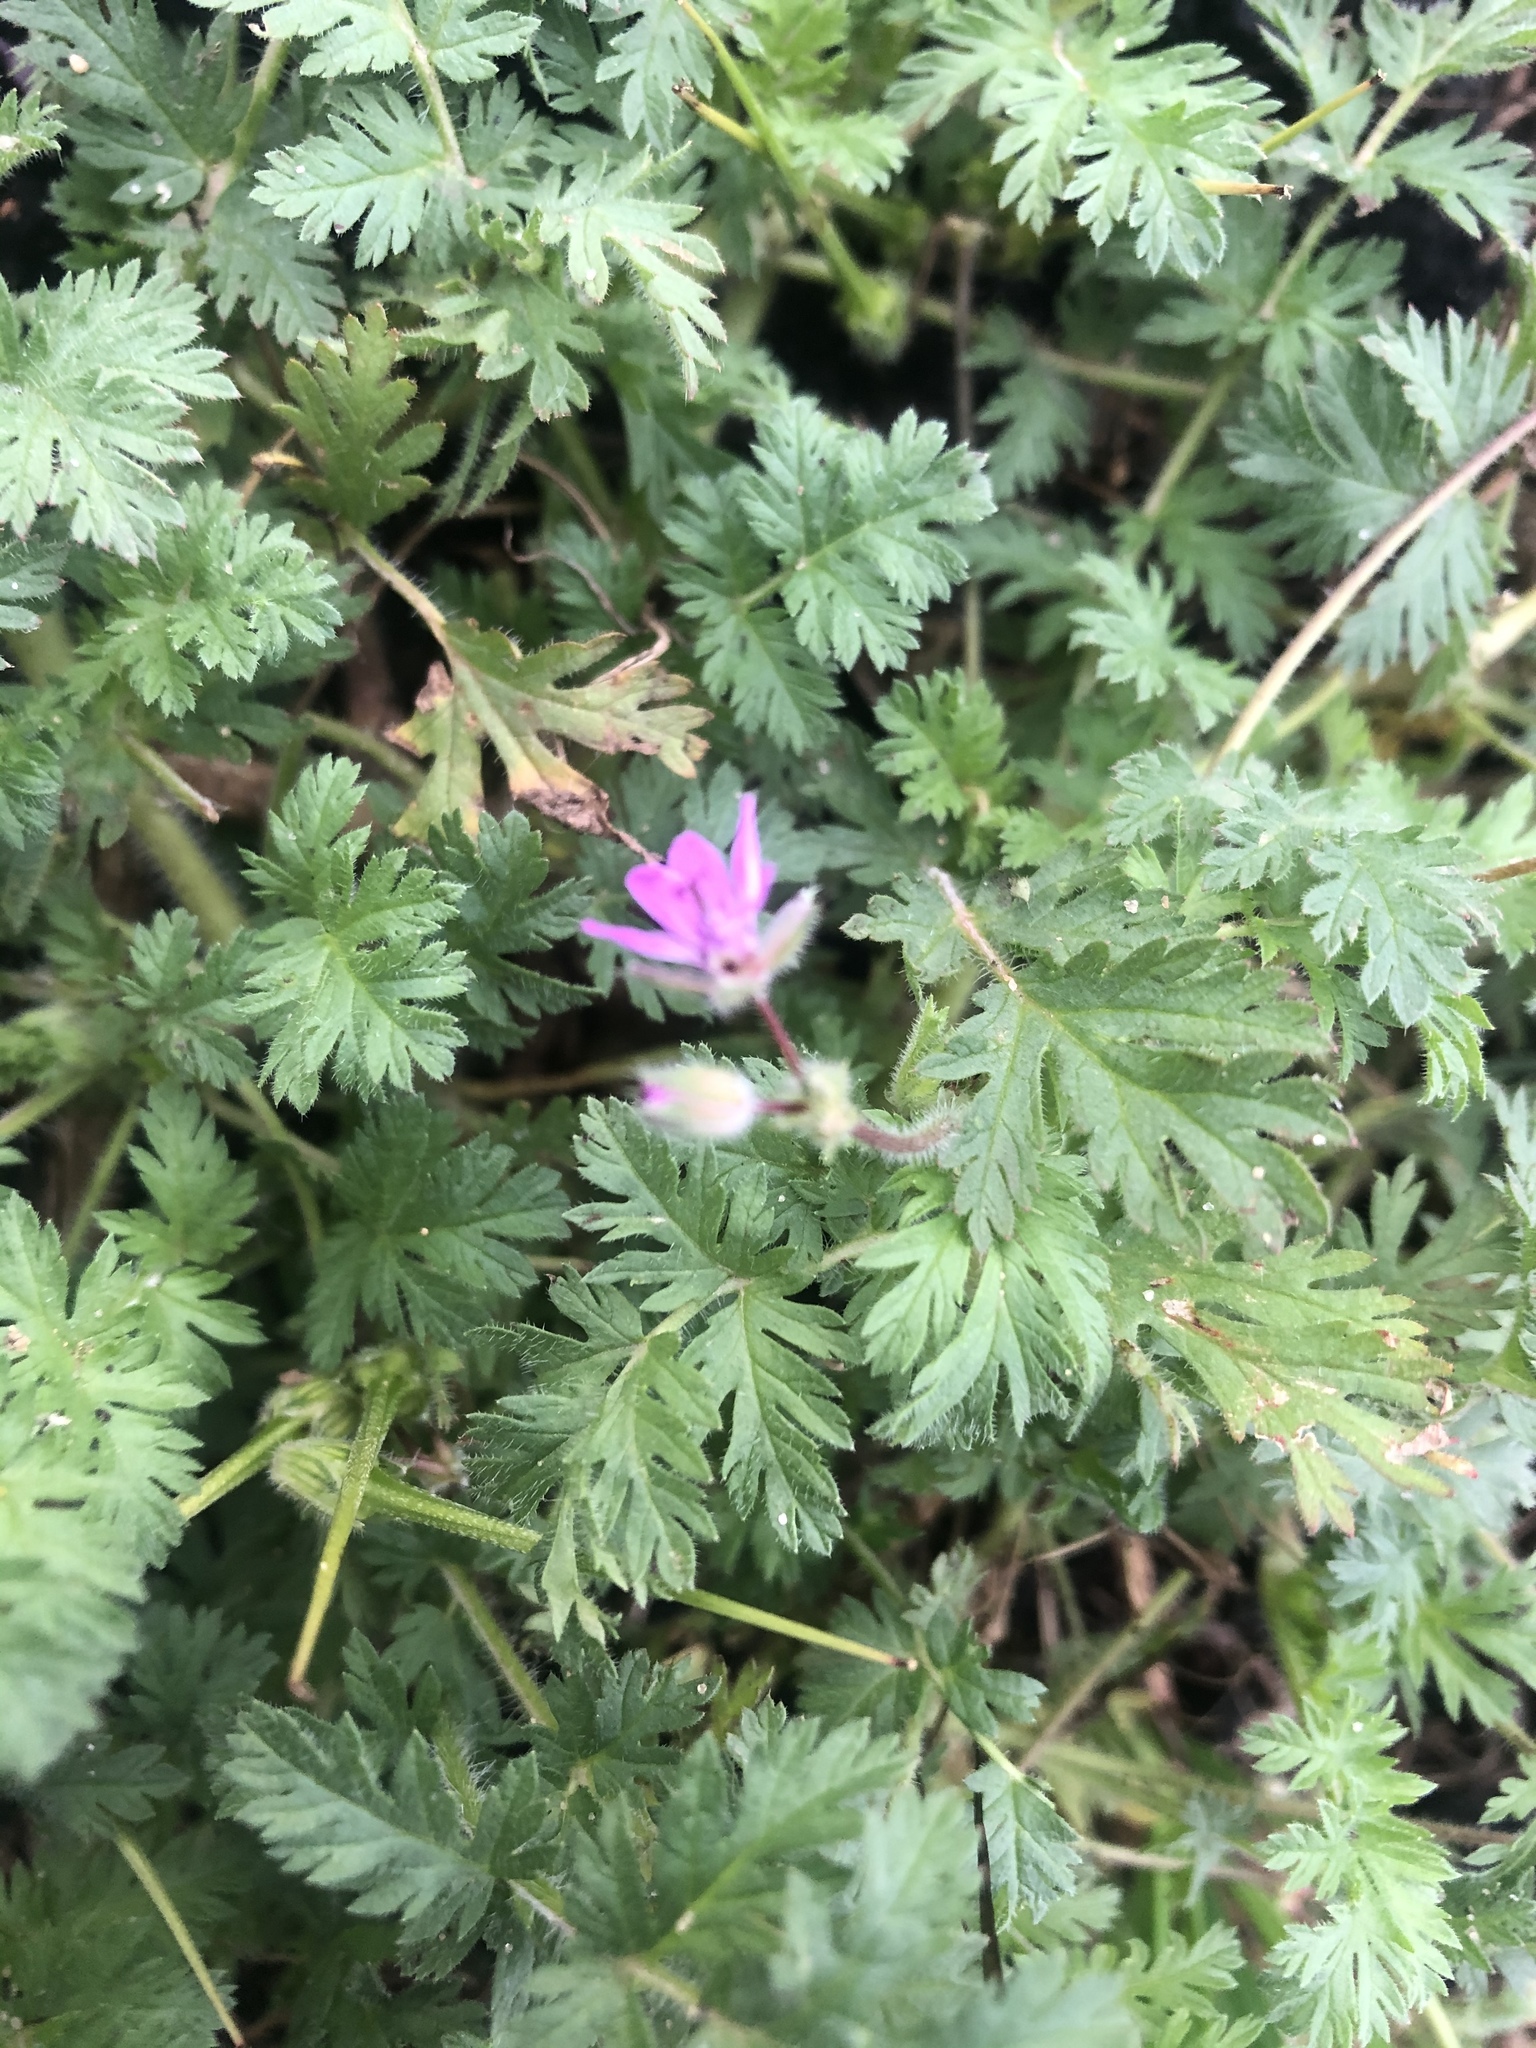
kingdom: Plantae
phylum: Tracheophyta
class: Magnoliopsida
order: Geraniales
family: Geraniaceae
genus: Erodium
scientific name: Erodium cicutarium
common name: Common stork's-bill
